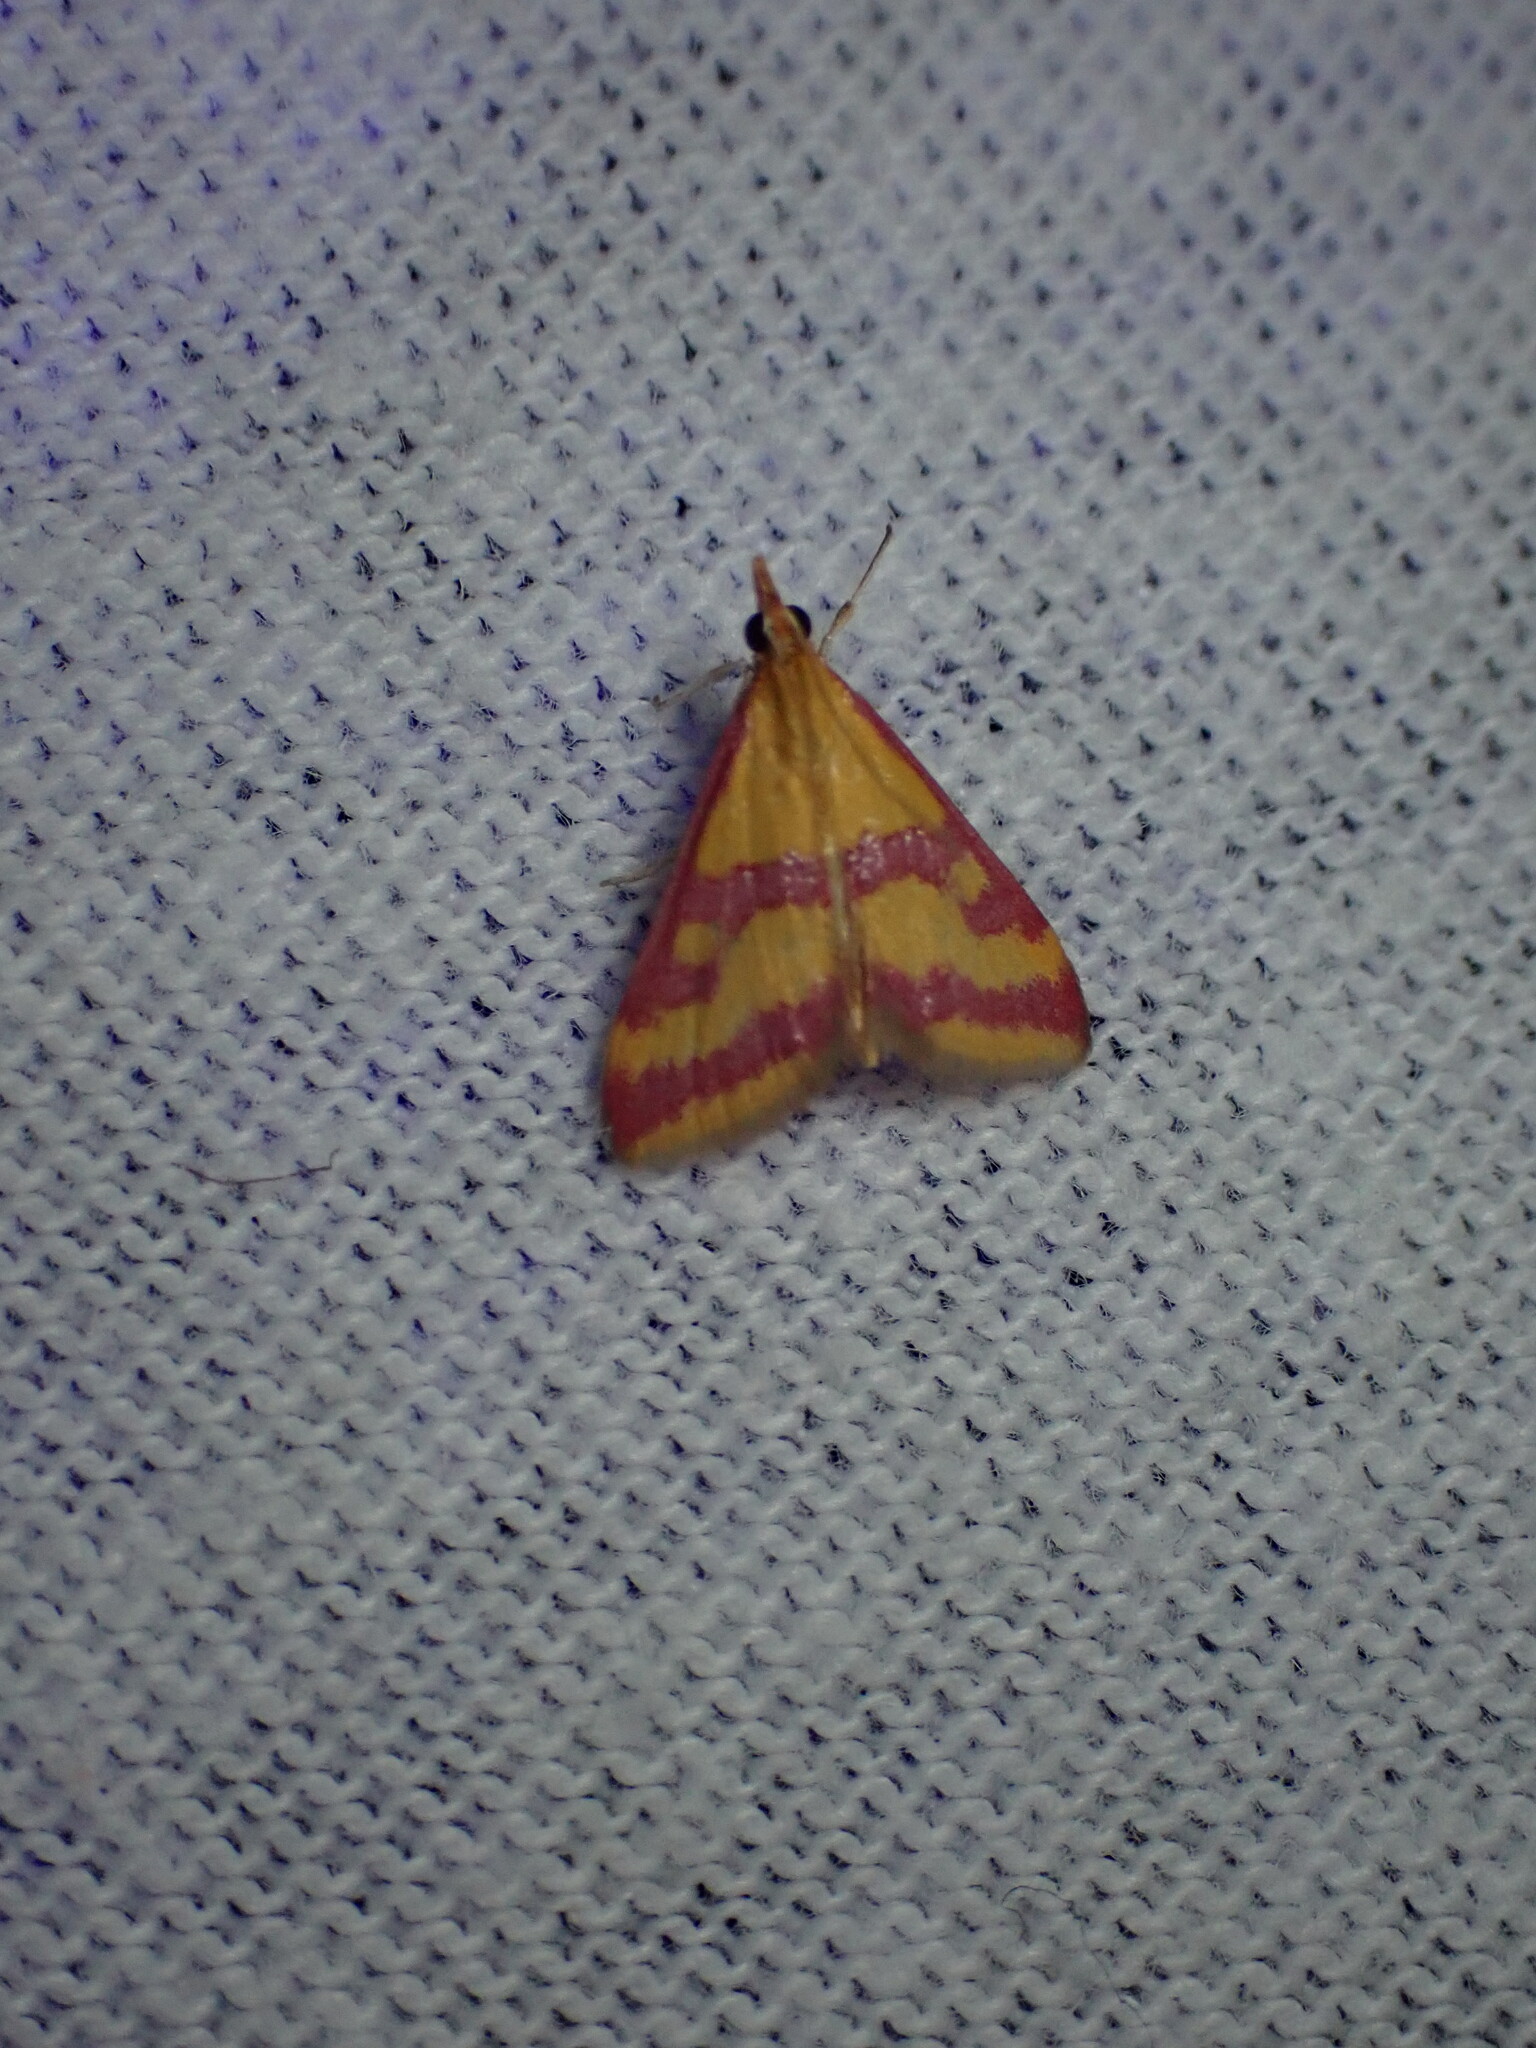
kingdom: Animalia
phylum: Arthropoda
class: Insecta
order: Lepidoptera
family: Crambidae
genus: Pyrausta
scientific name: Pyrausta sanguinalis
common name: Scarce crimson and gold
